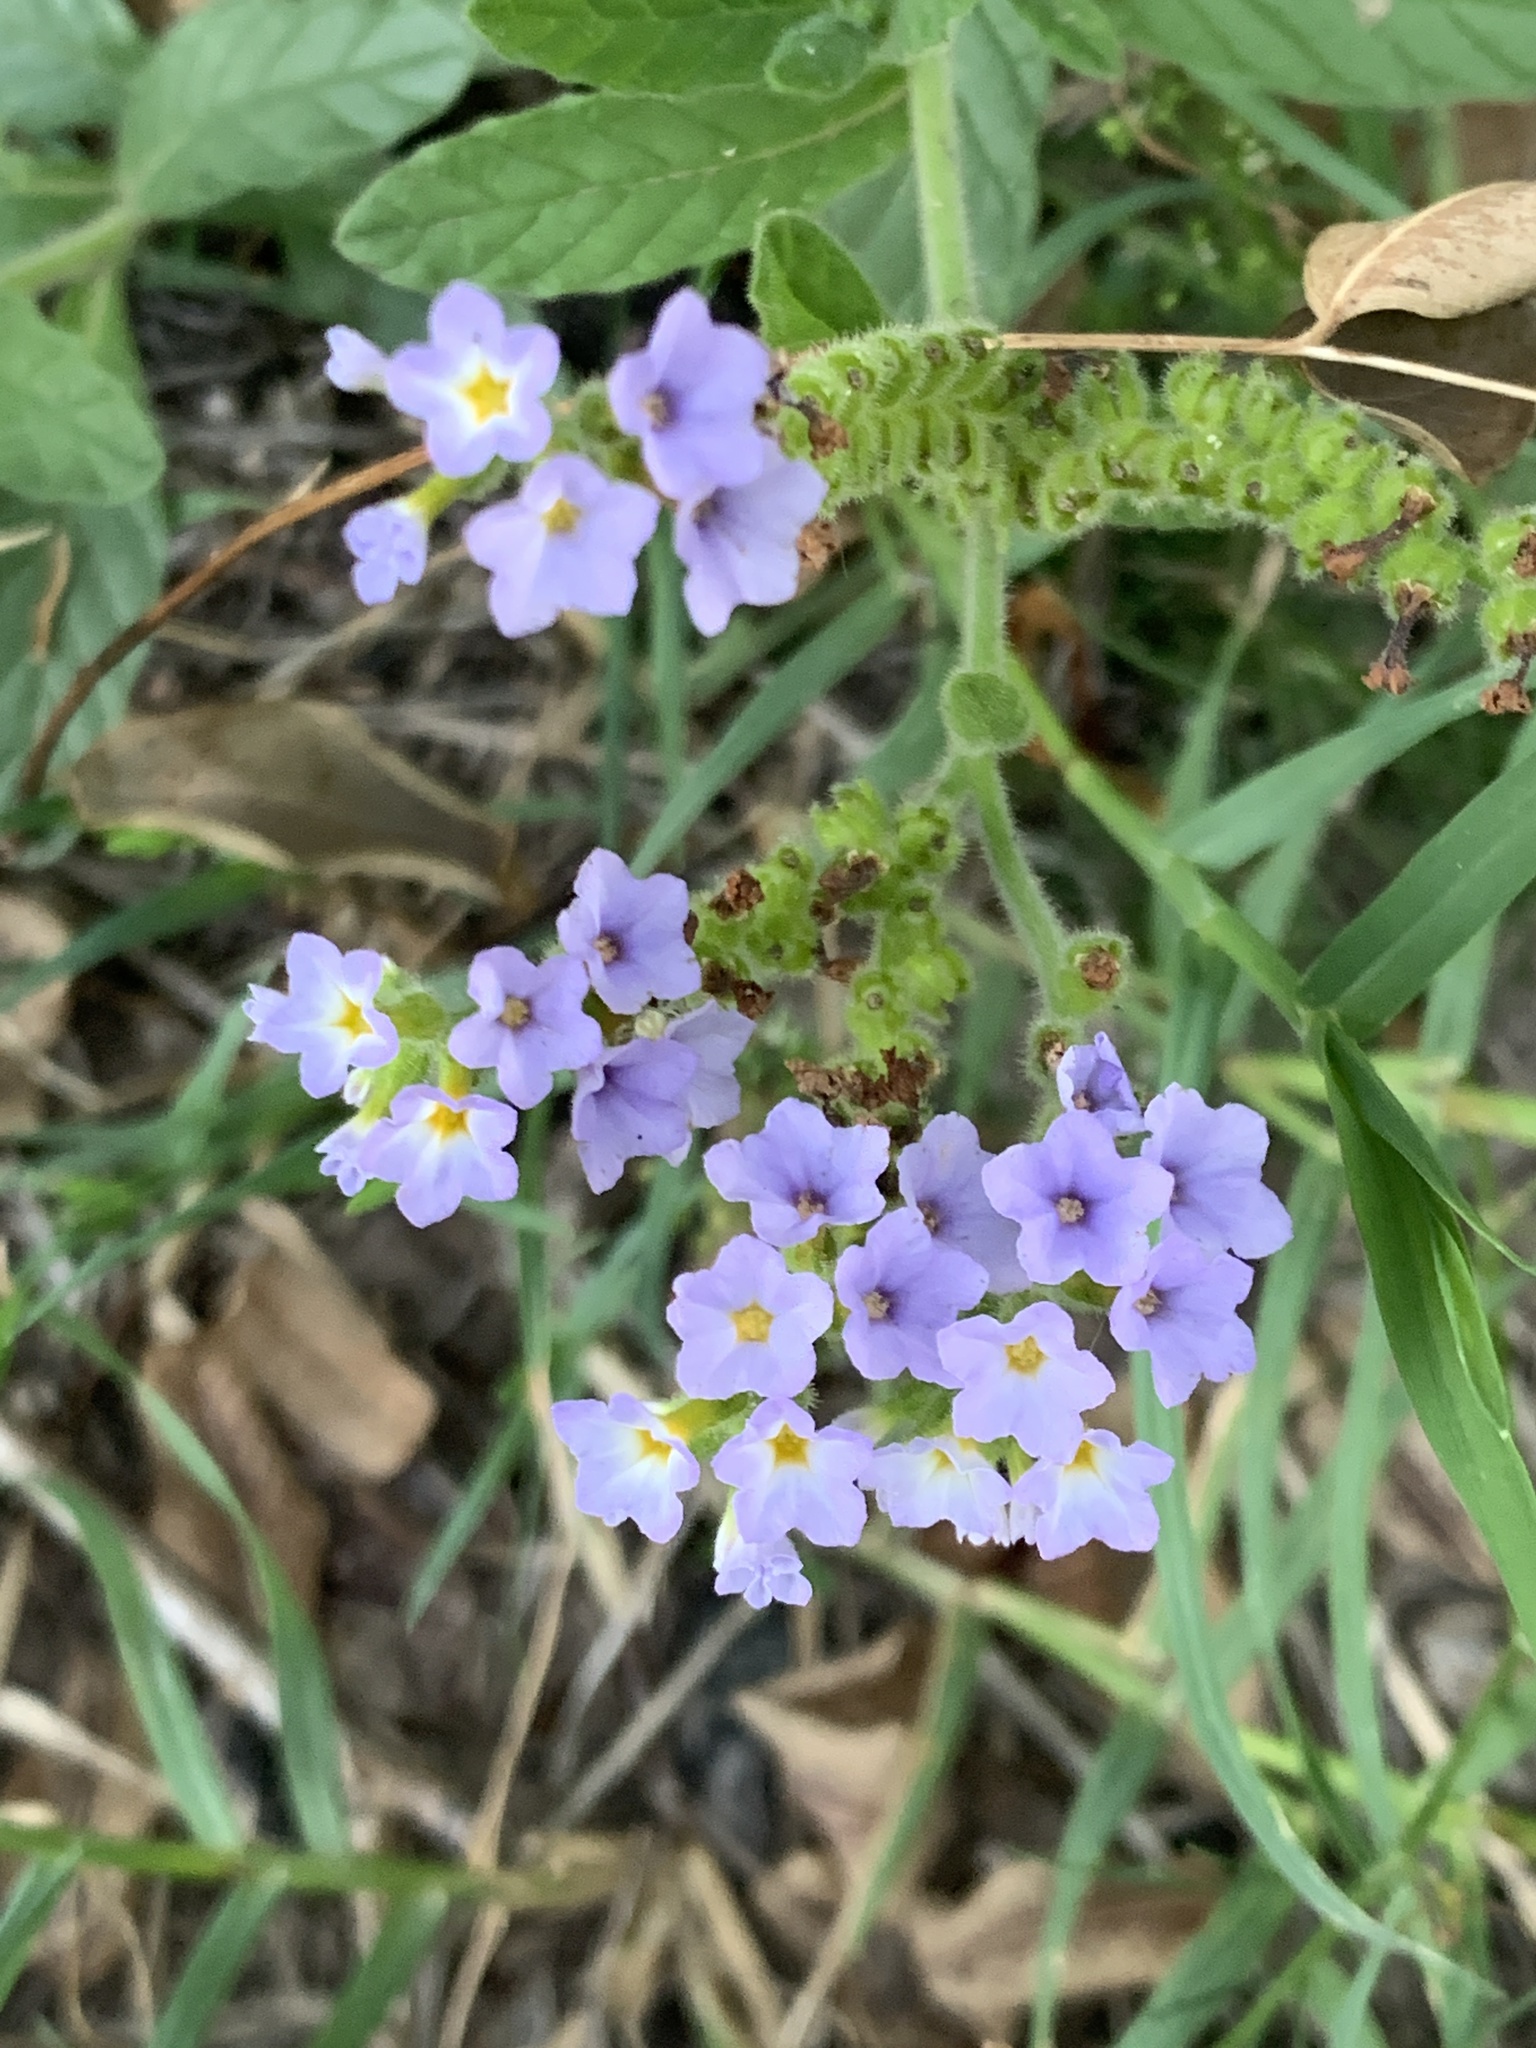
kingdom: Plantae
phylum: Tracheophyta
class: Magnoliopsida
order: Boraginales
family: Heliotropiaceae
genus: Heliotropium
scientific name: Heliotropium amplexicaule
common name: Clasping heliotrope
